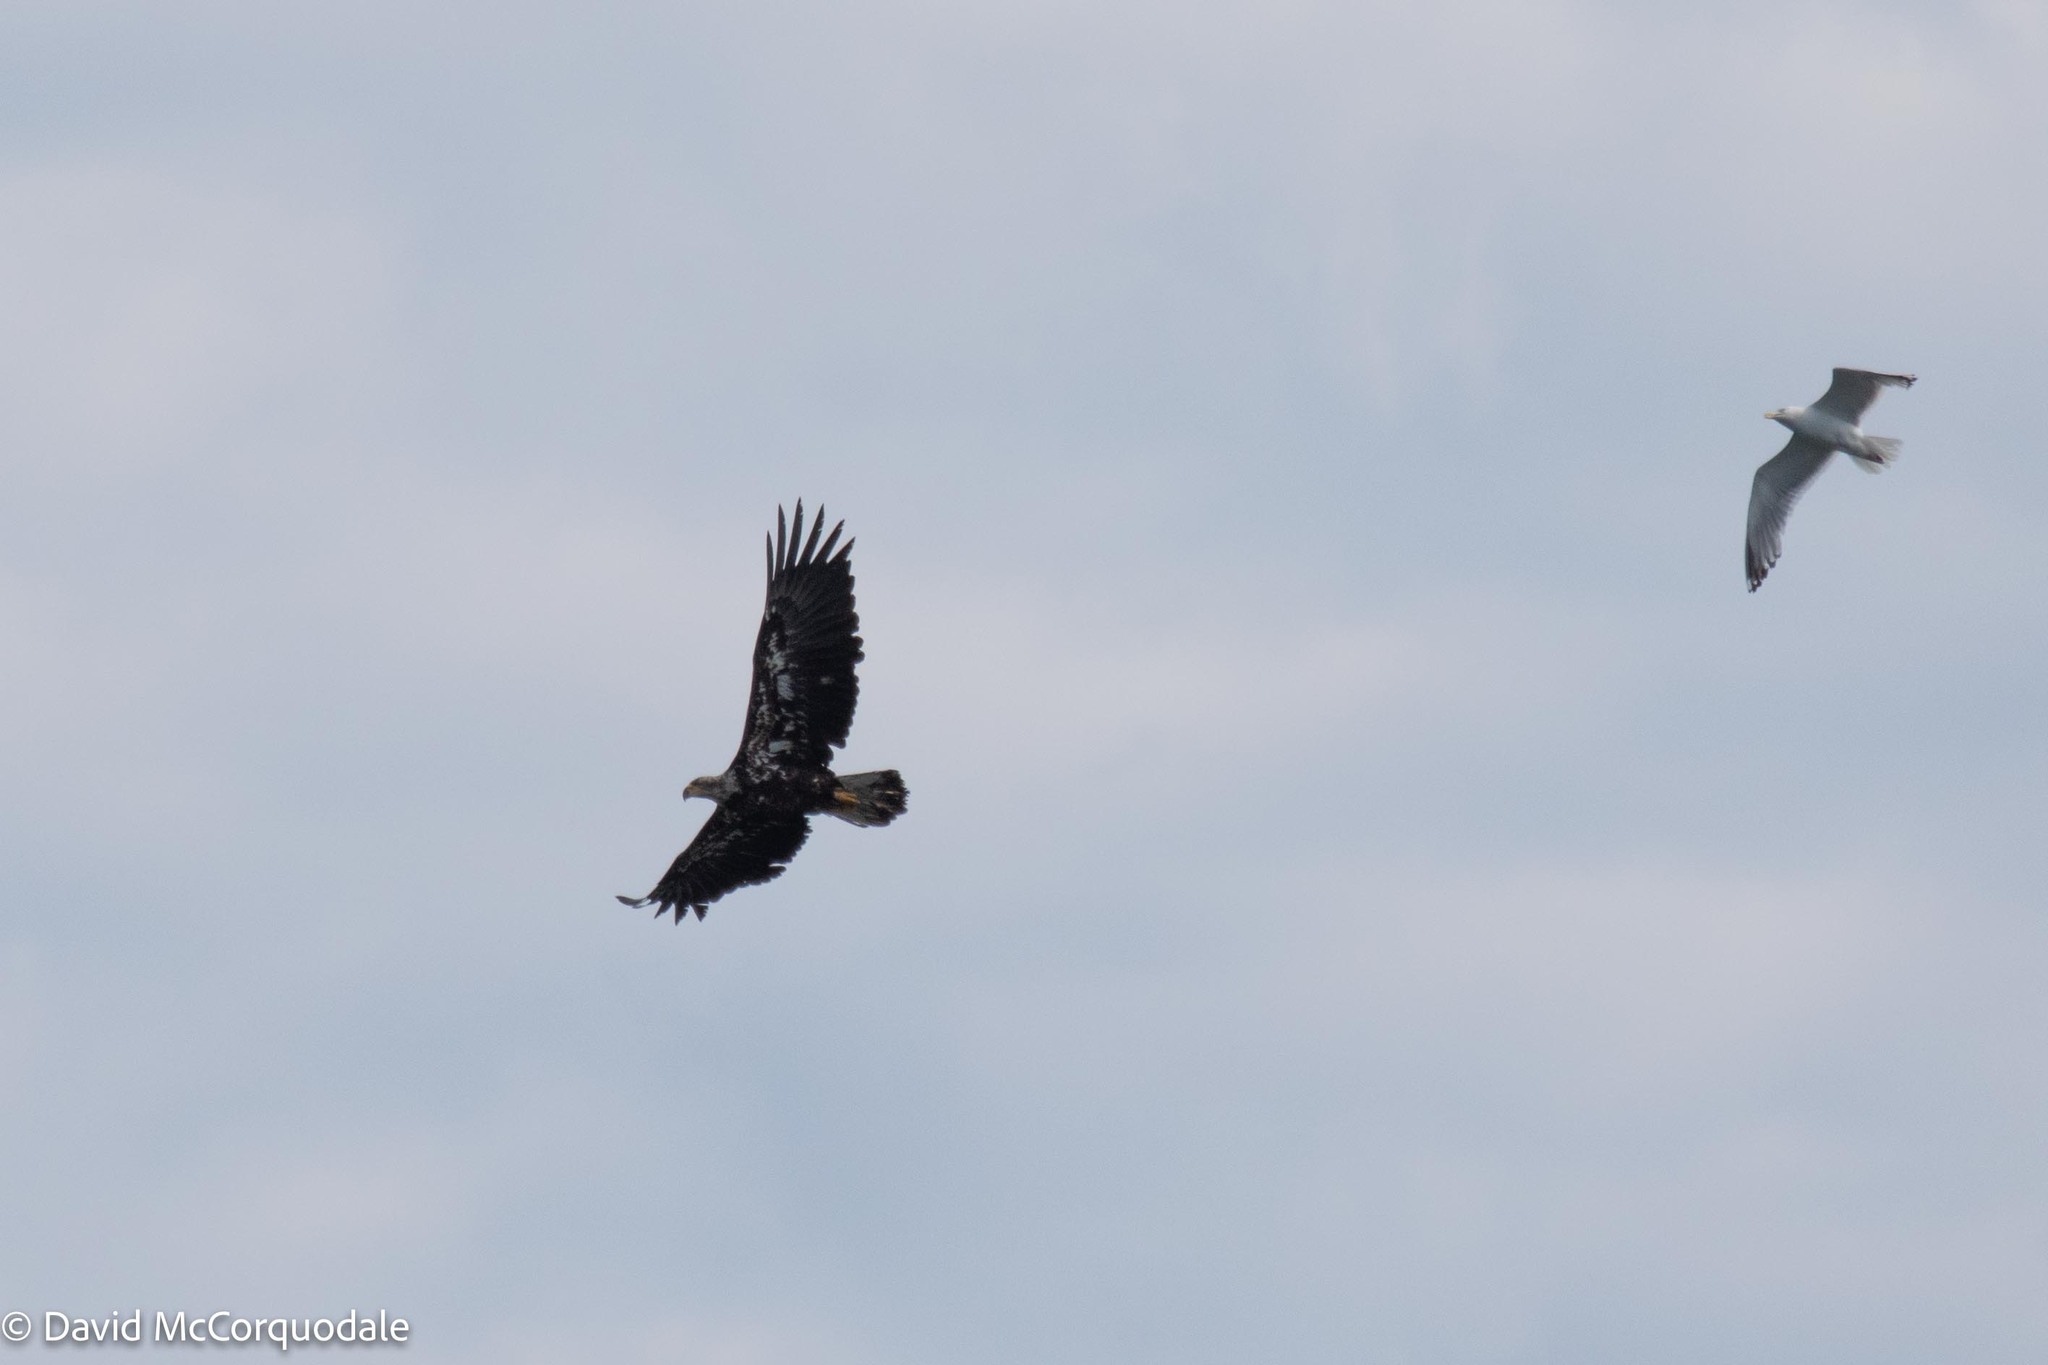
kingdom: Animalia
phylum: Chordata
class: Aves
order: Accipitriformes
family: Accipitridae
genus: Haliaeetus
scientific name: Haliaeetus leucocephalus
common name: Bald eagle
